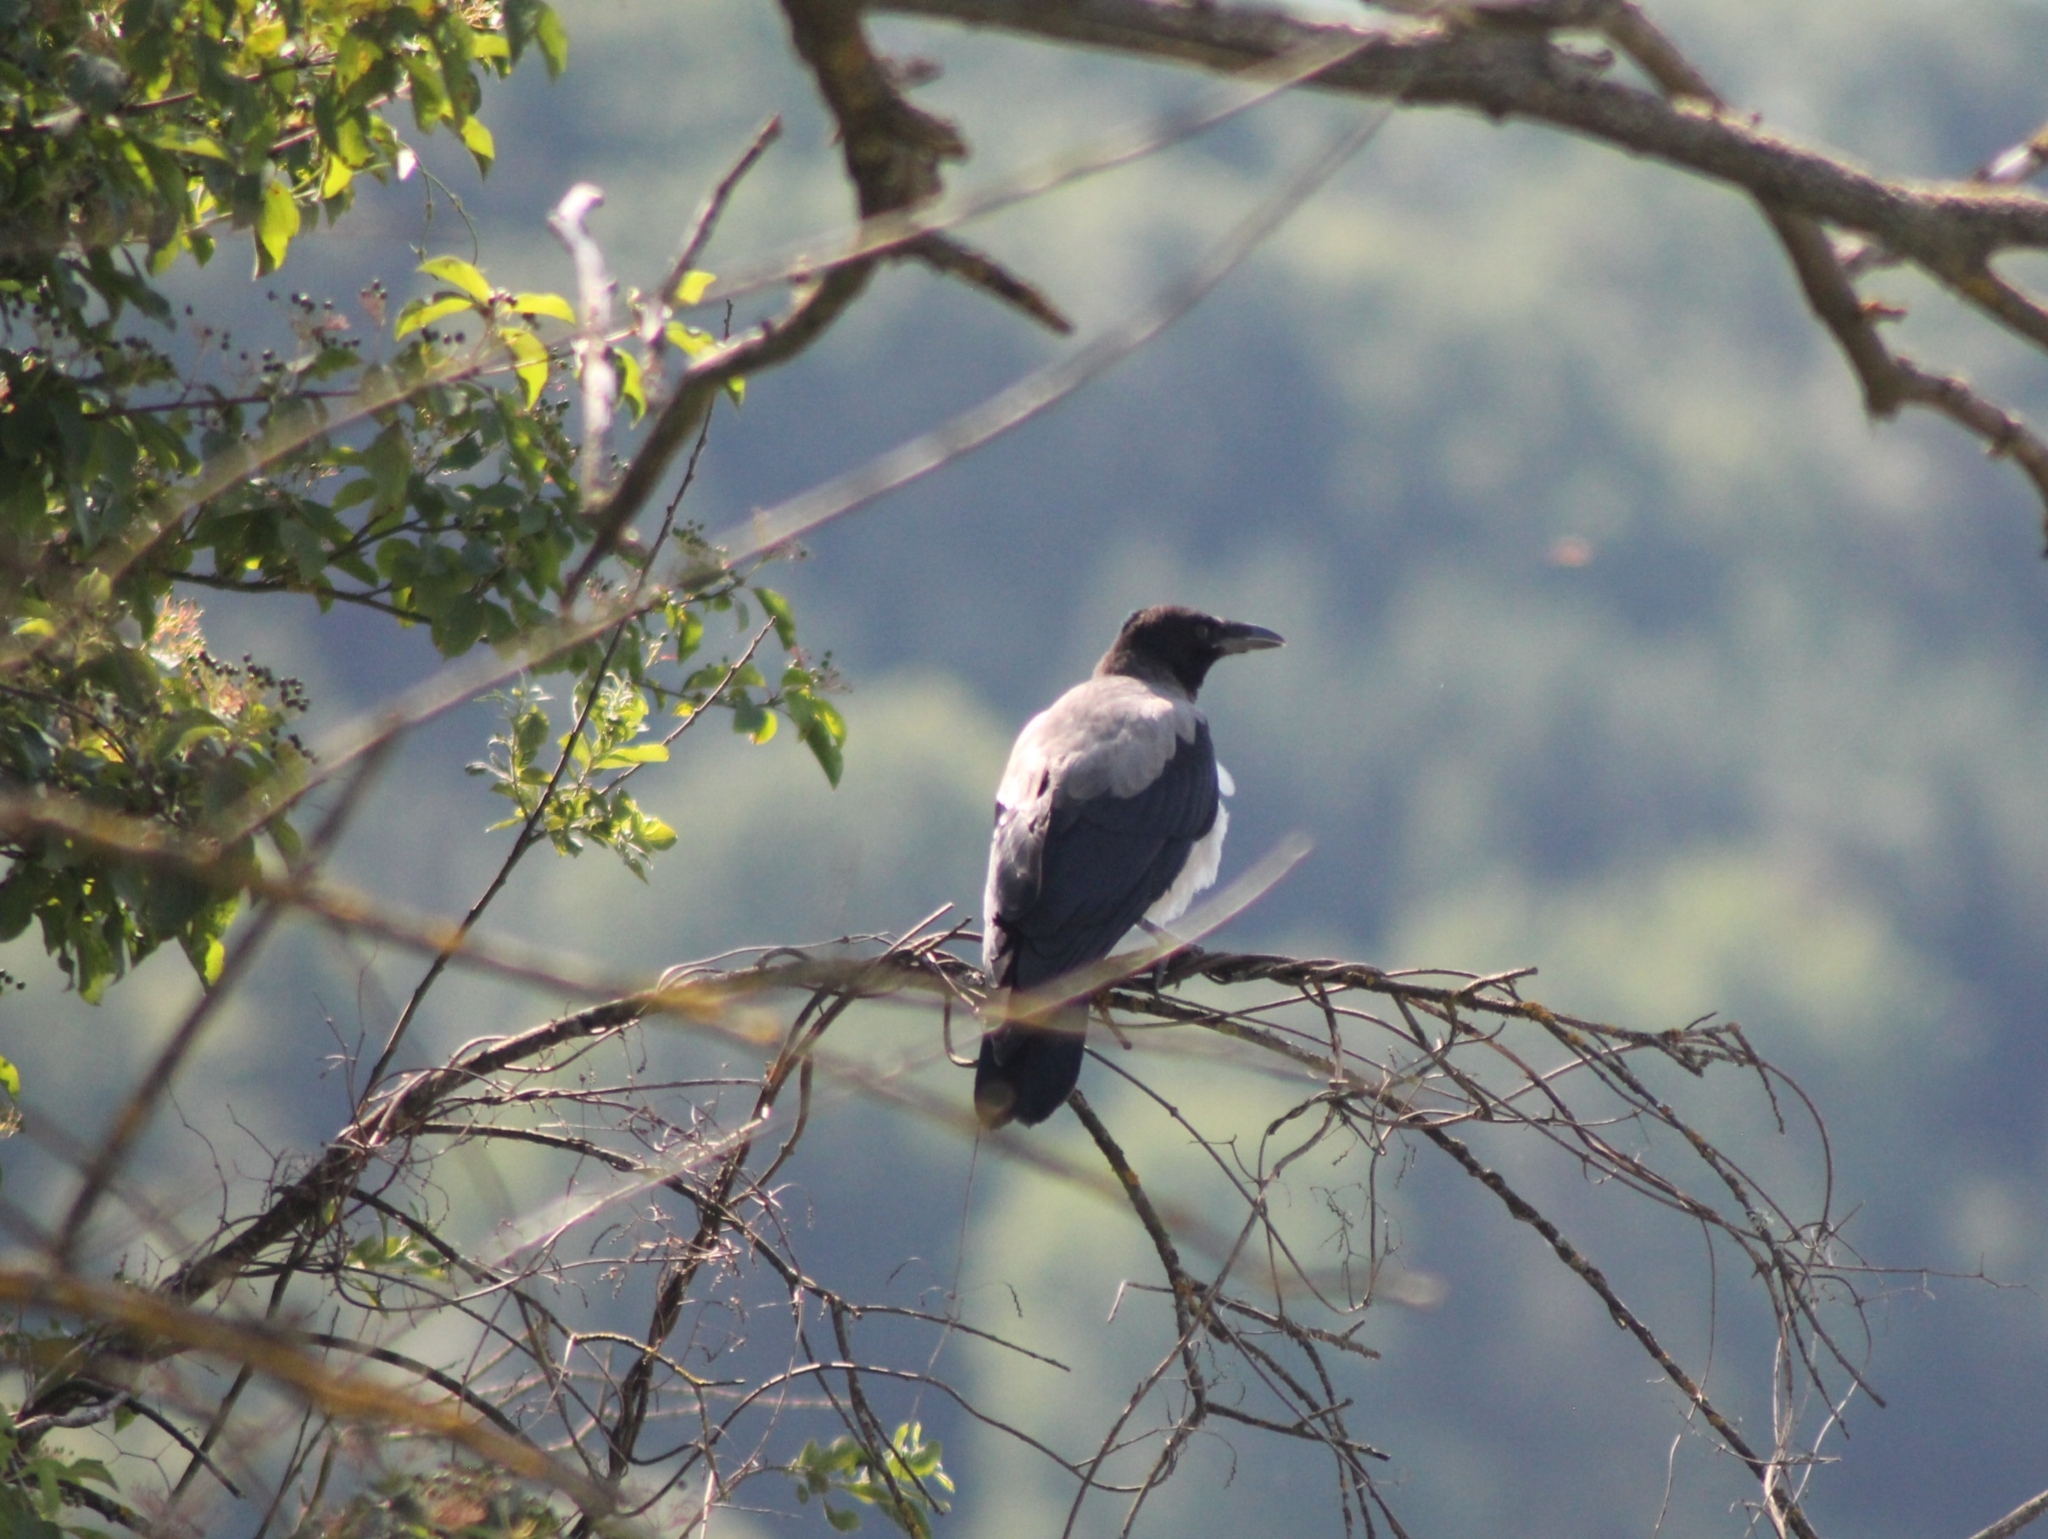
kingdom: Animalia
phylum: Chordata
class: Aves
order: Passeriformes
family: Corvidae
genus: Corvus
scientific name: Corvus cornix
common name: Hooded crow
